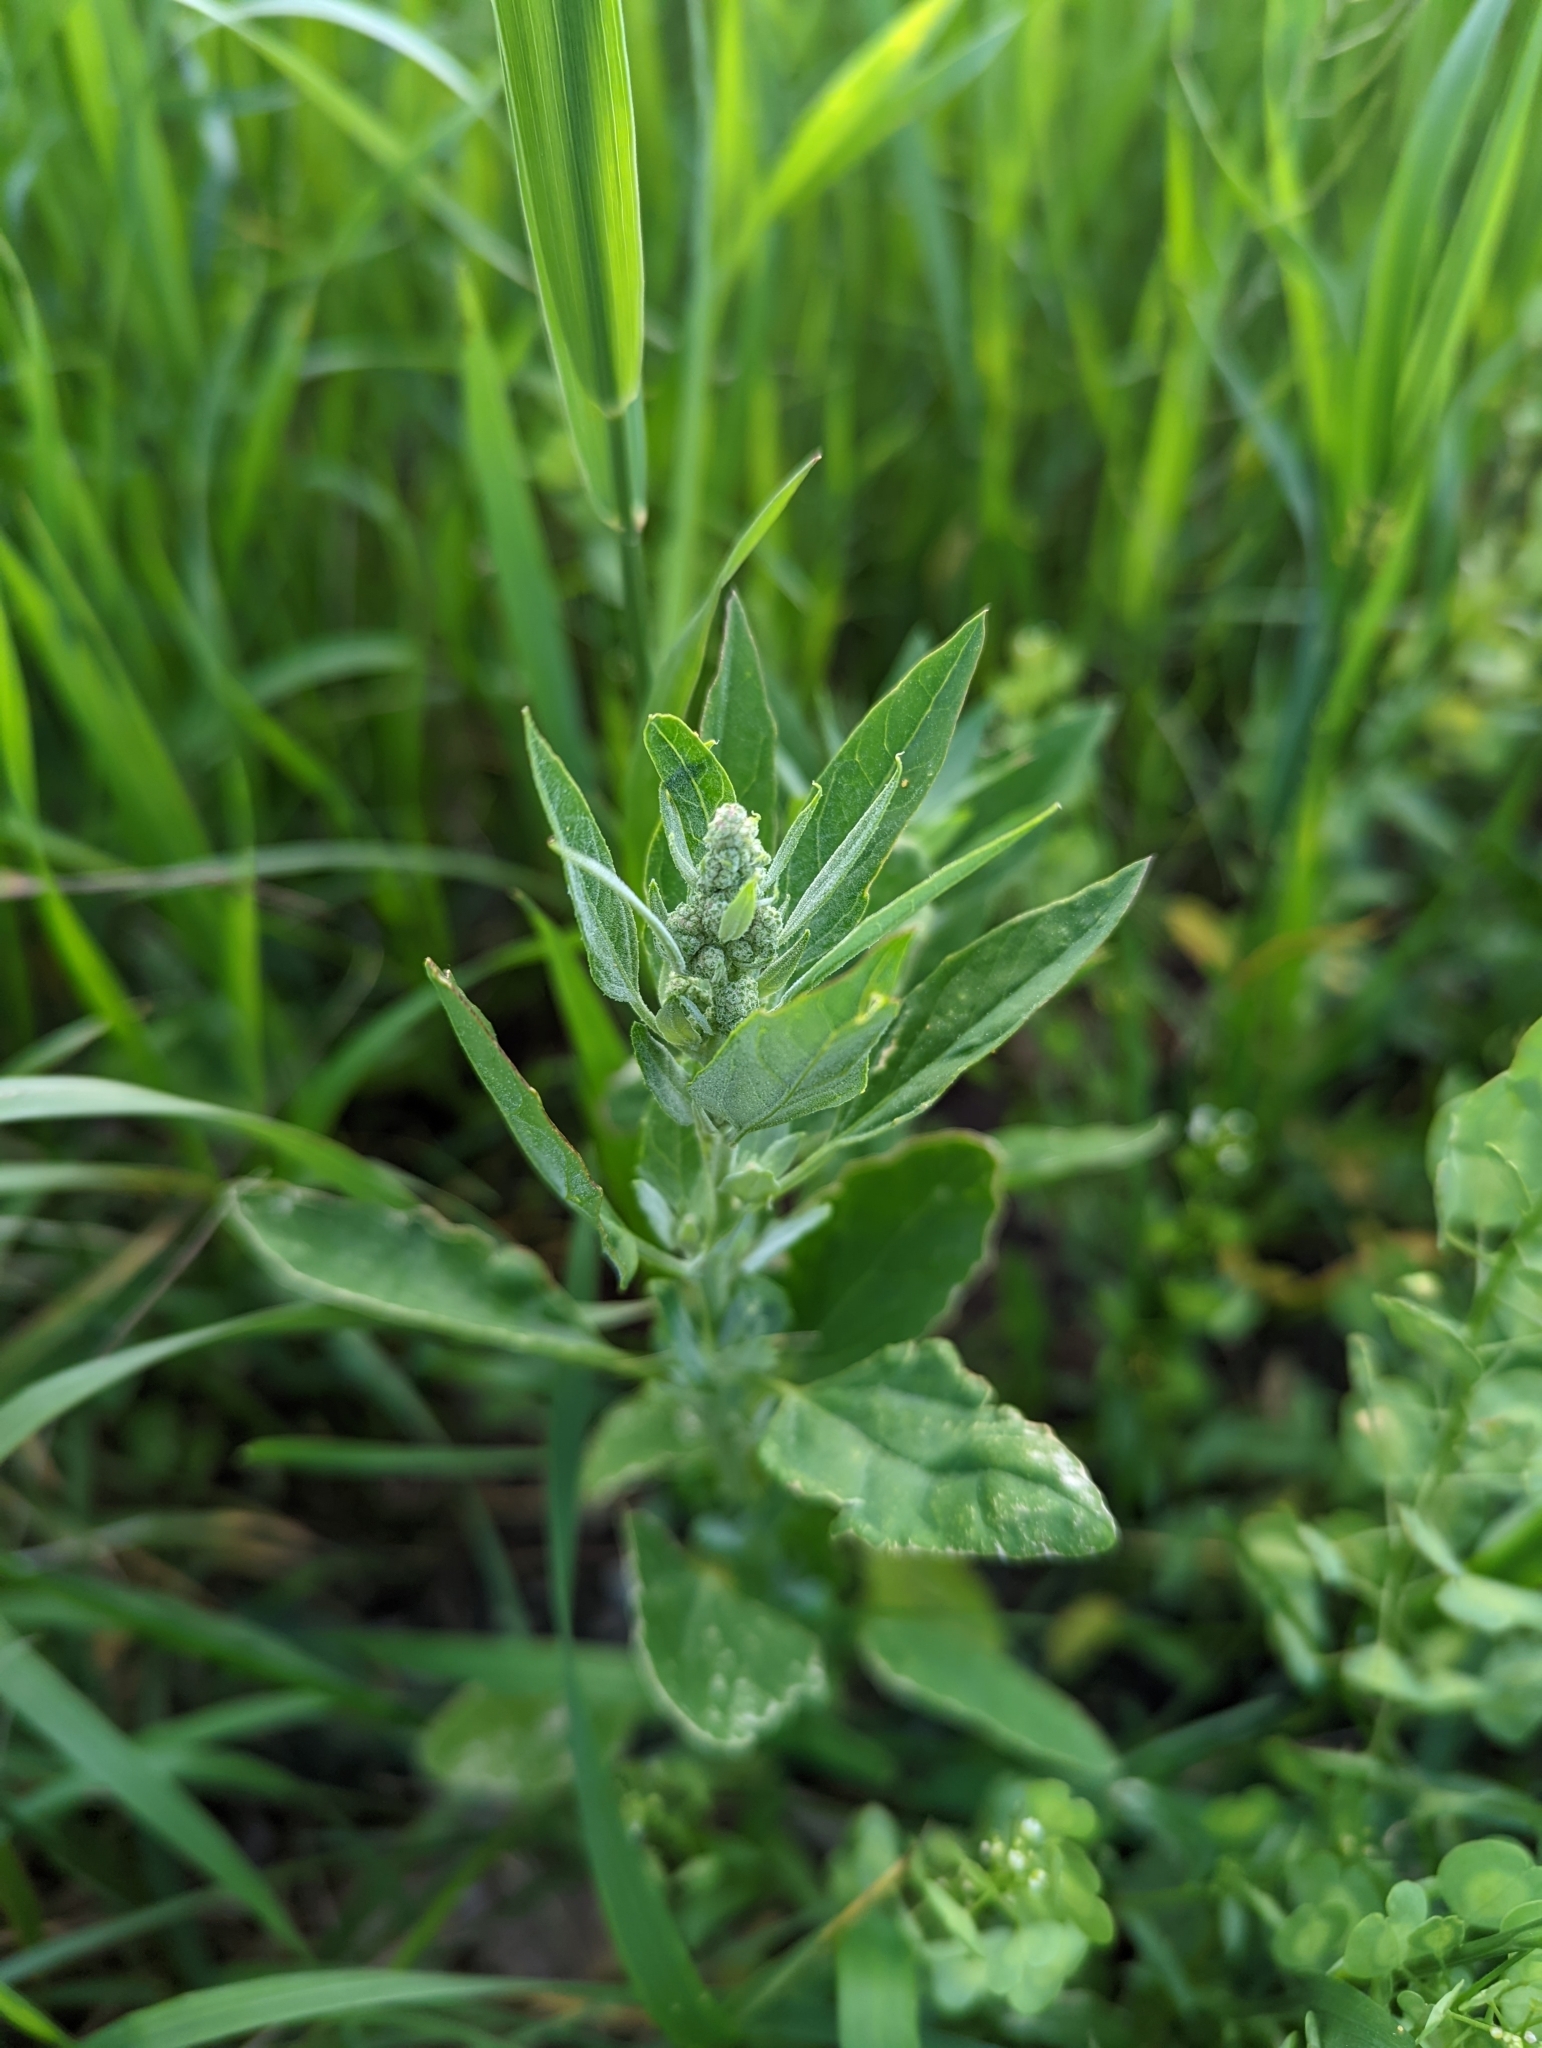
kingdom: Plantae
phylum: Tracheophyta
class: Magnoliopsida
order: Caryophyllales
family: Amaranthaceae
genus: Chenopodium
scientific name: Chenopodium album
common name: Fat-hen
